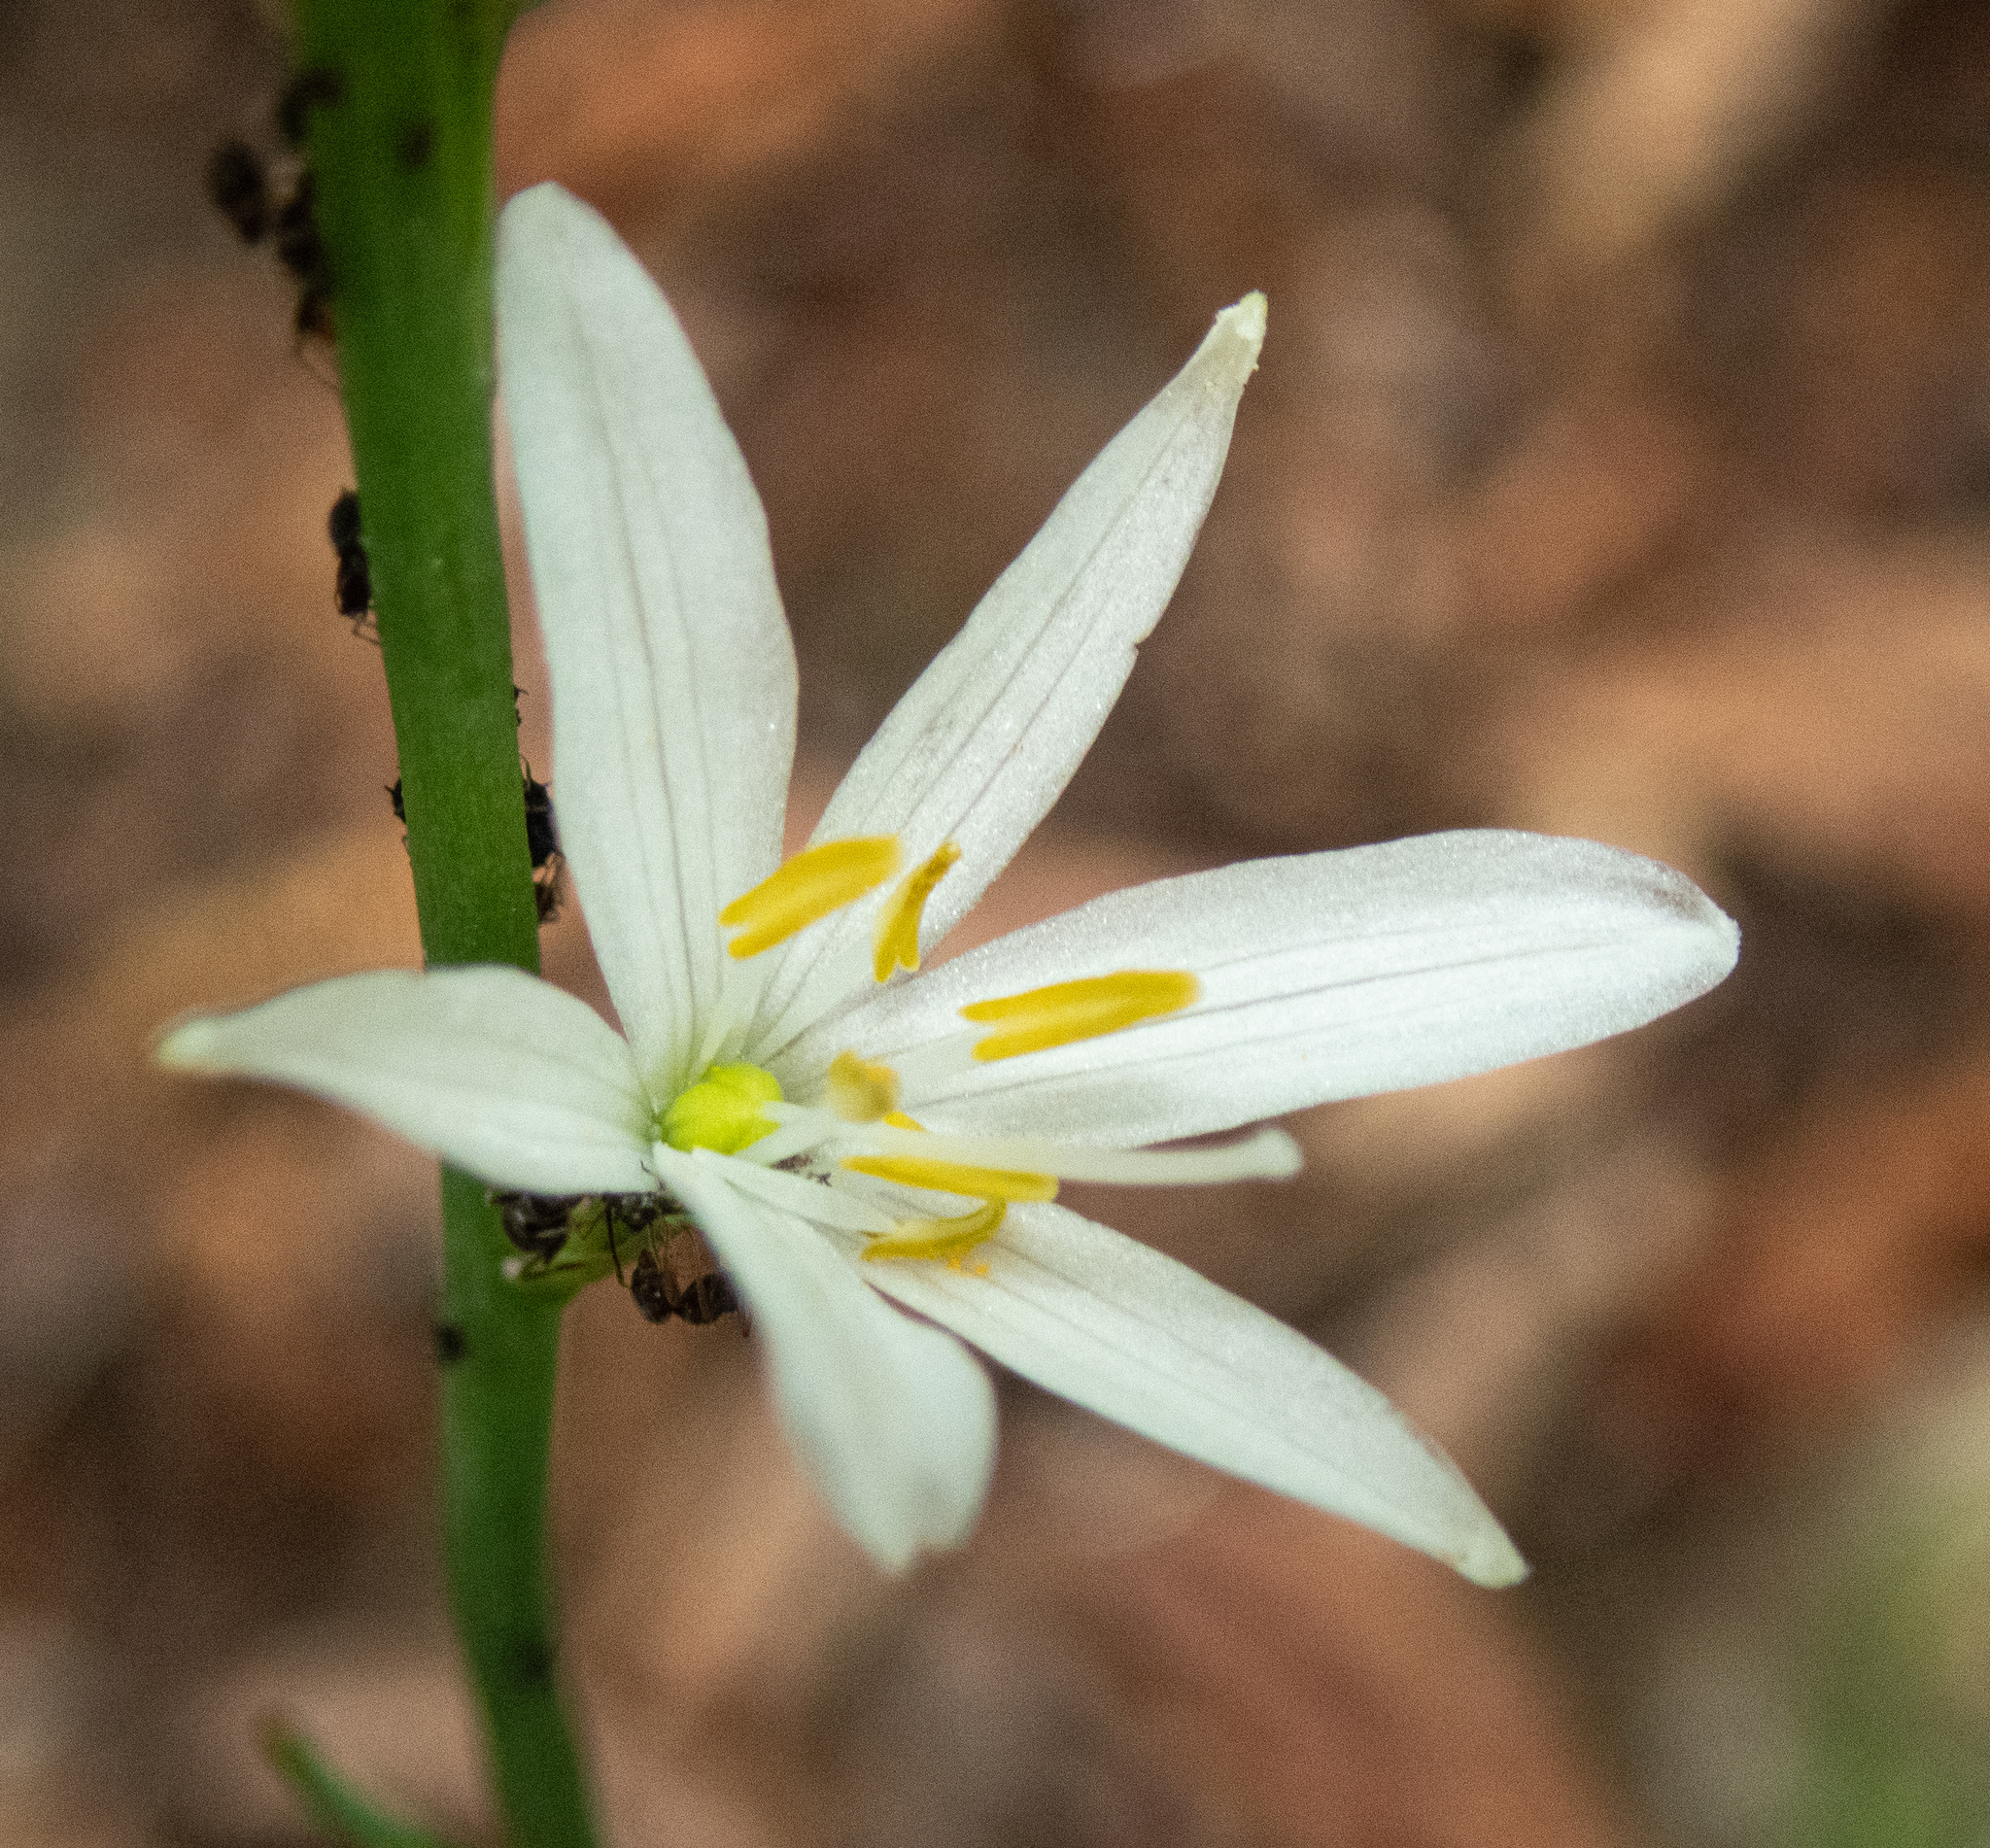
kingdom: Plantae
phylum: Tracheophyta
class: Liliopsida
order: Asparagales
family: Asparagaceae
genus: Anthericum
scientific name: Anthericum liliago
